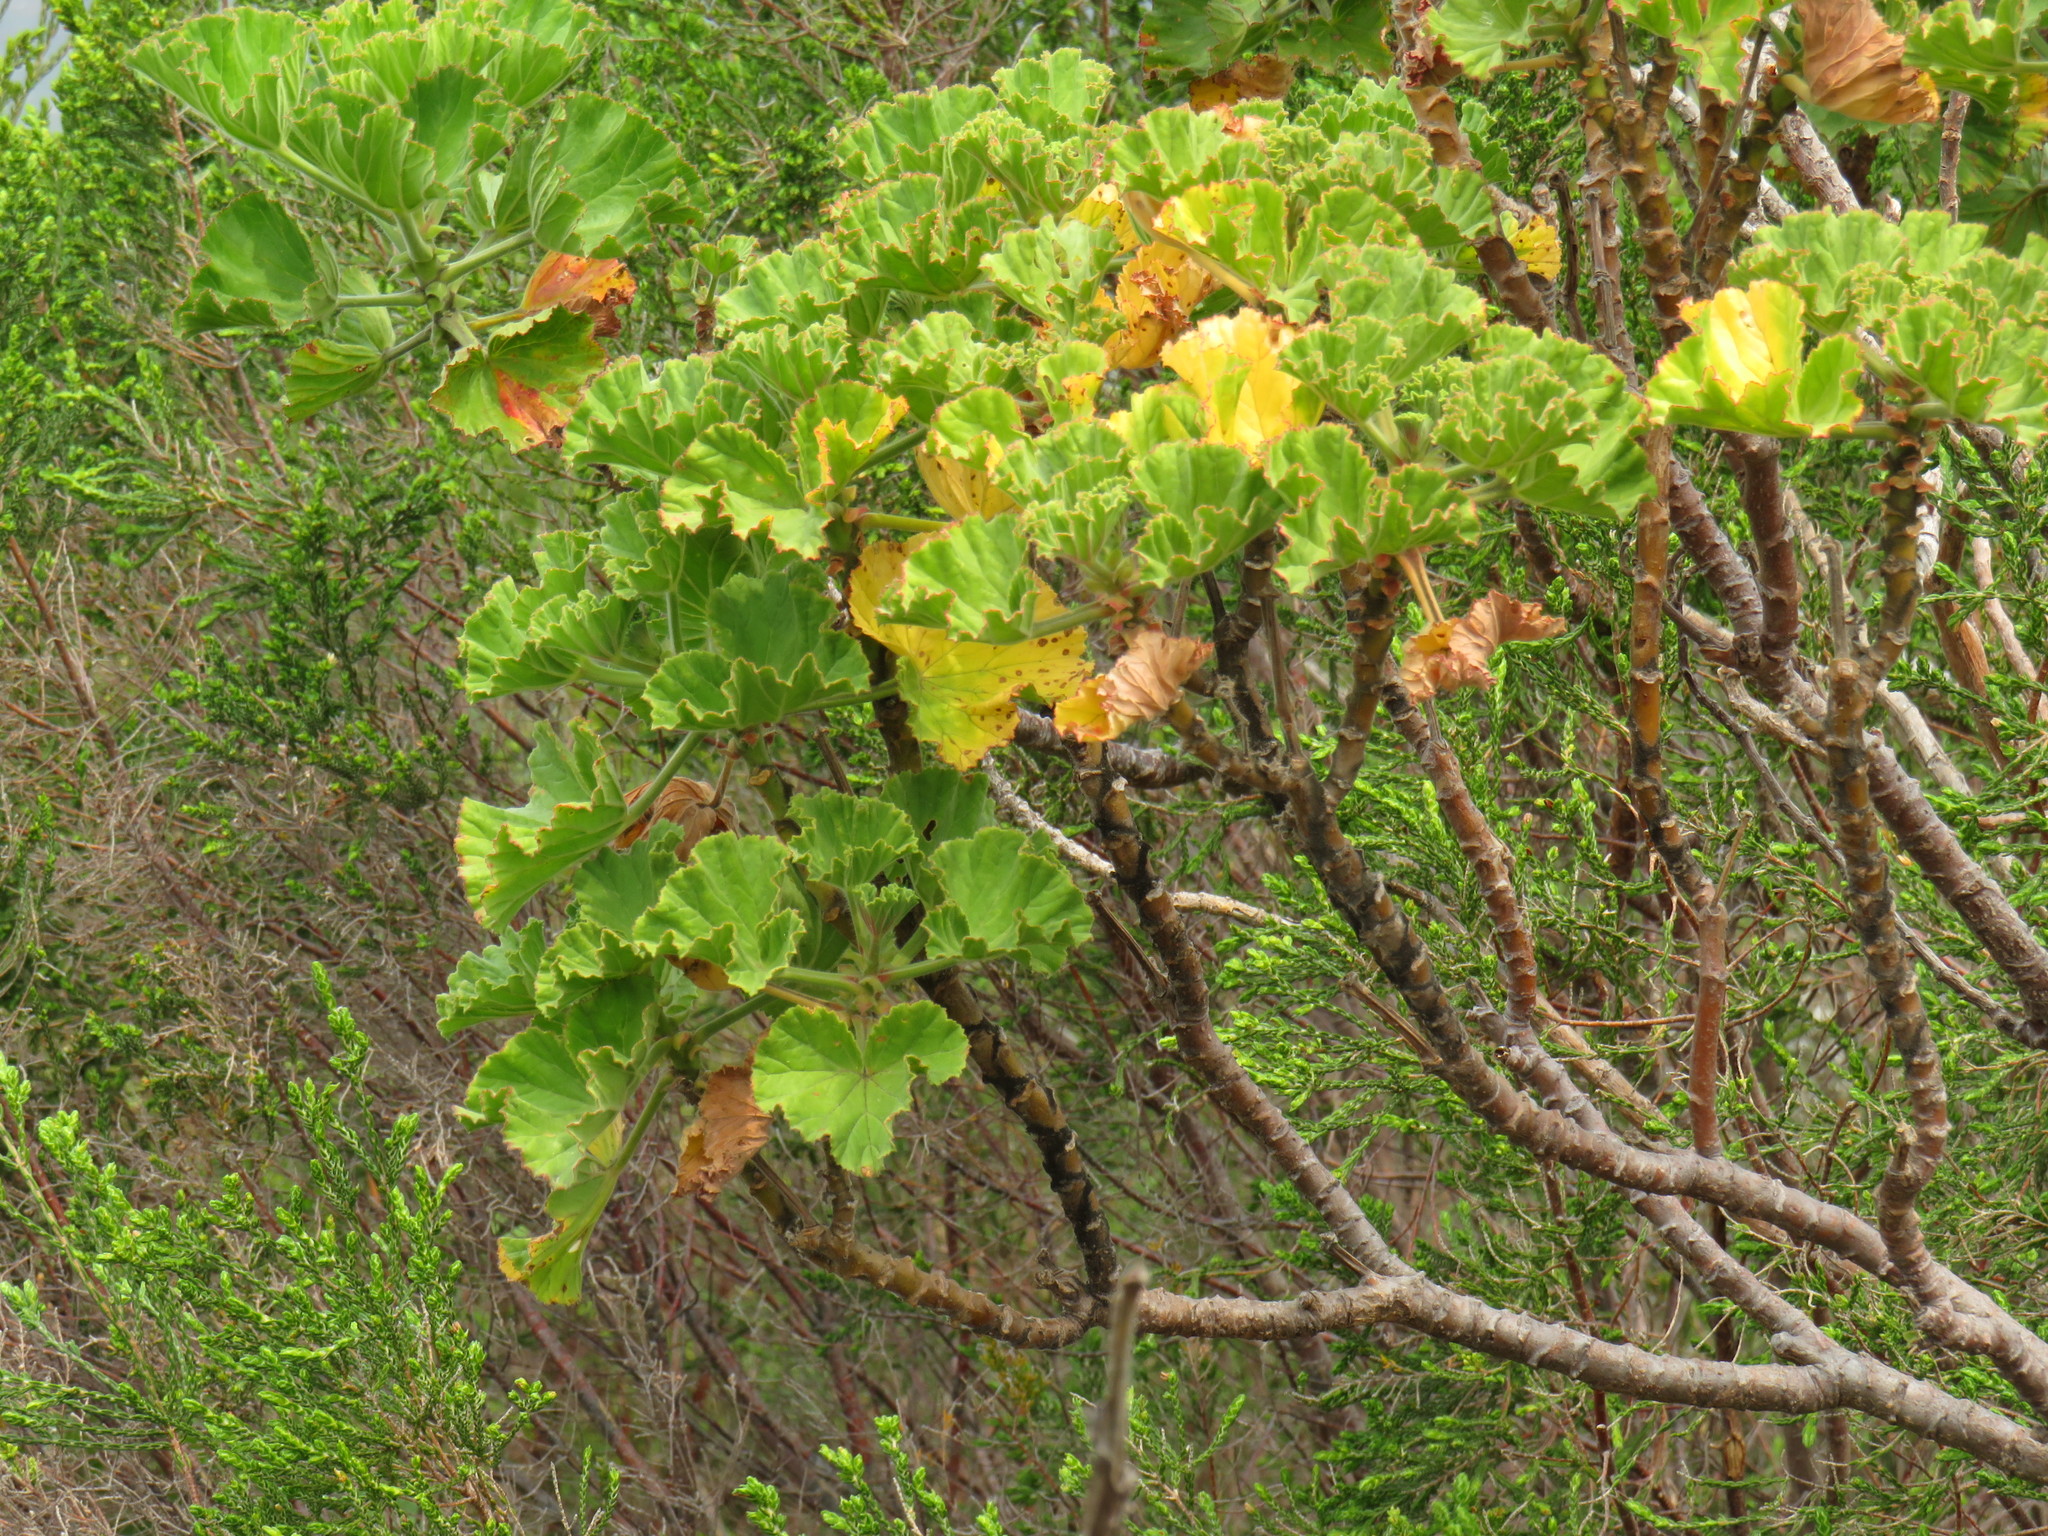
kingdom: Plantae
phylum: Tracheophyta
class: Magnoliopsida
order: Geraniales
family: Geraniaceae
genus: Pelargonium
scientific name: Pelargonium cucullatum
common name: Tree pelargonium
